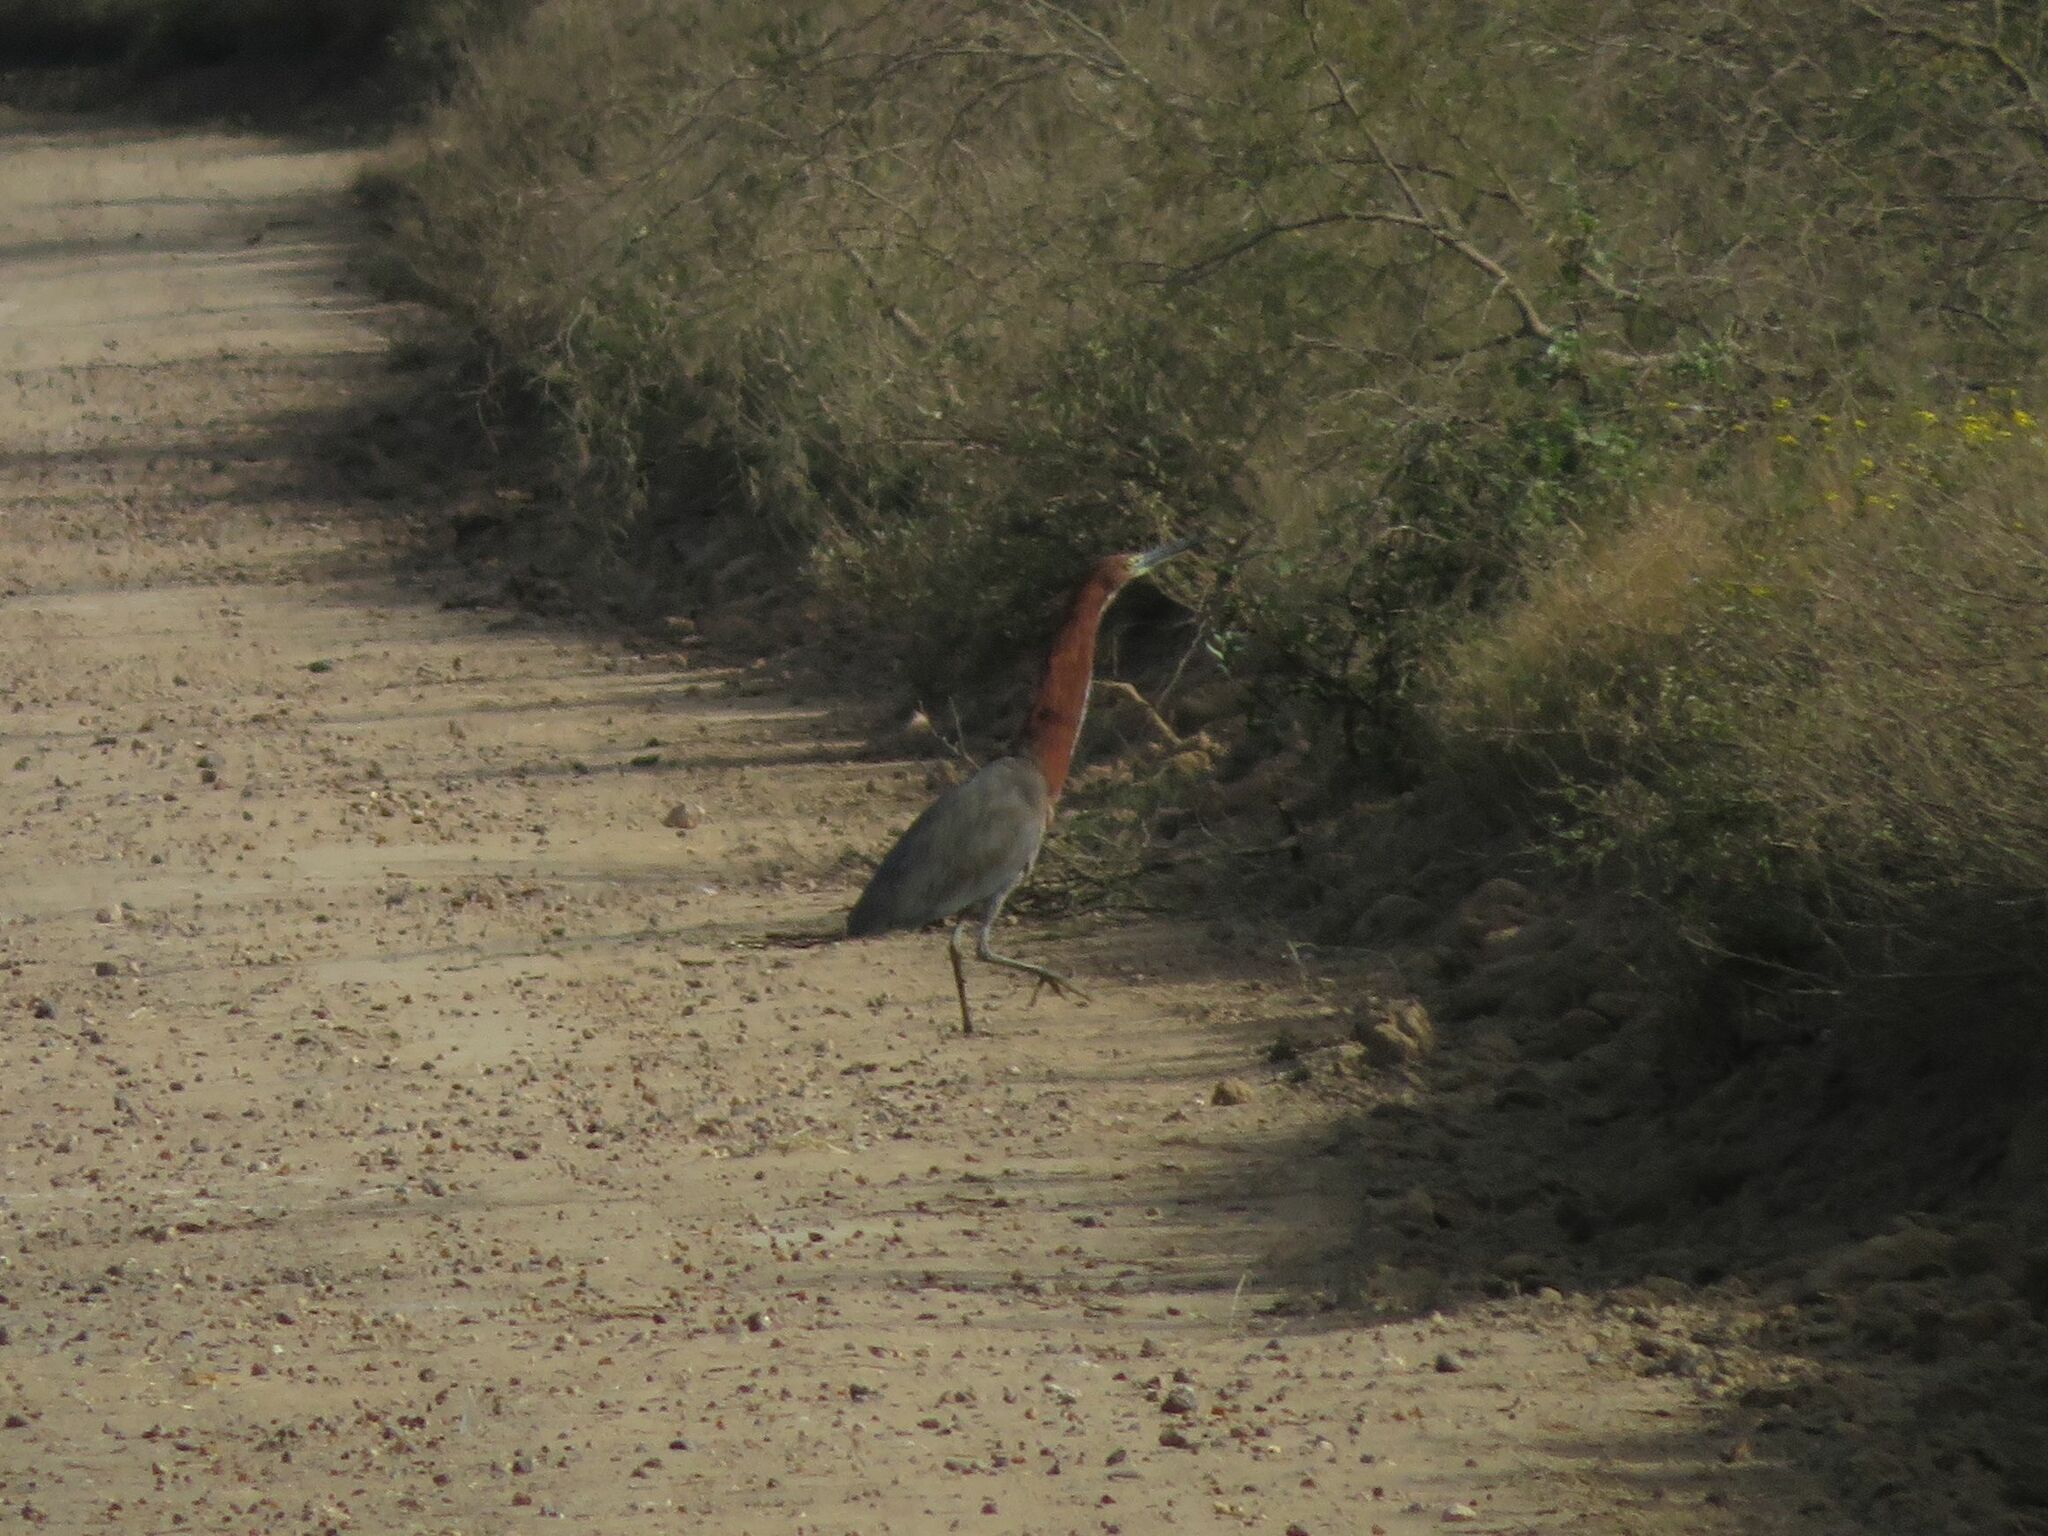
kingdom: Animalia
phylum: Chordata
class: Aves
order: Pelecaniformes
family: Ardeidae
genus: Tigrisoma
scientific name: Tigrisoma lineatum
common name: Rufescent tiger-heron
